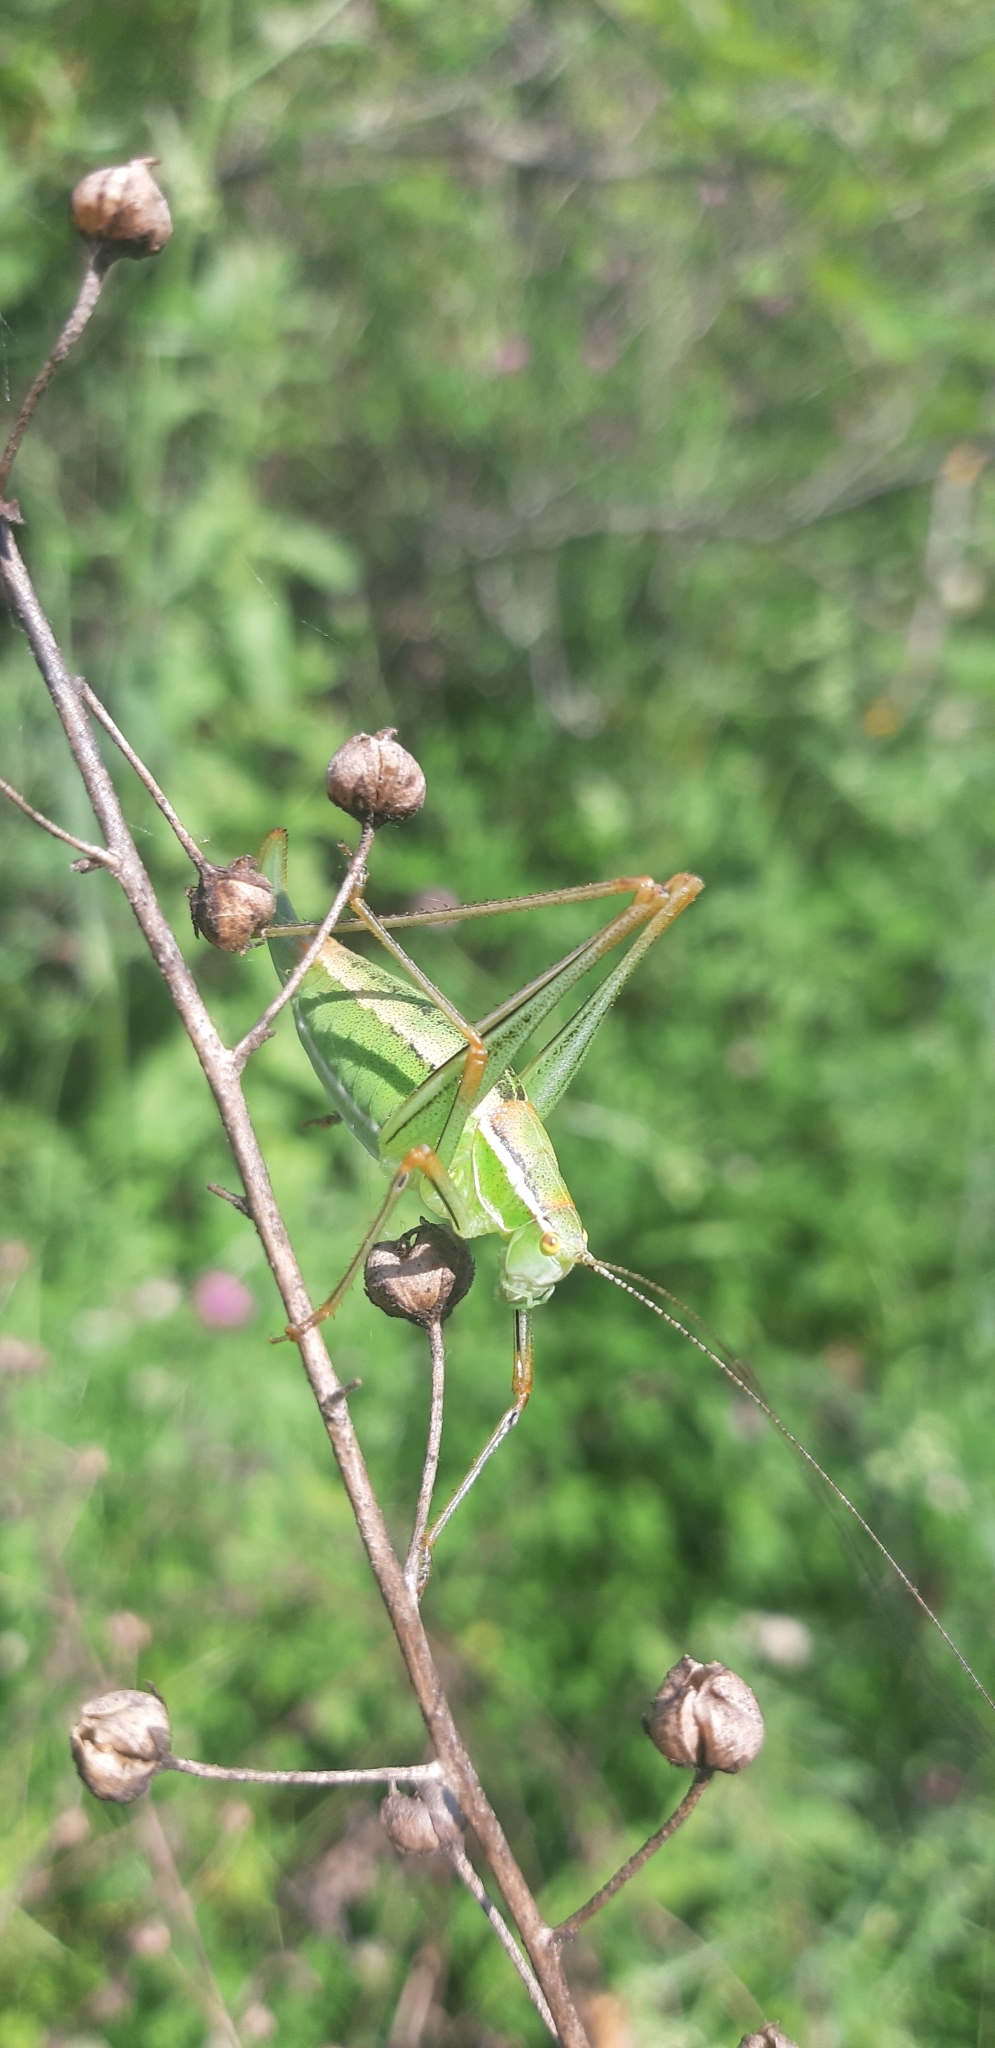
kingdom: Animalia
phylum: Arthropoda
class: Insecta
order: Orthoptera
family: Tettigoniidae
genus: Poecilimon
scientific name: Poecilimon superbus
